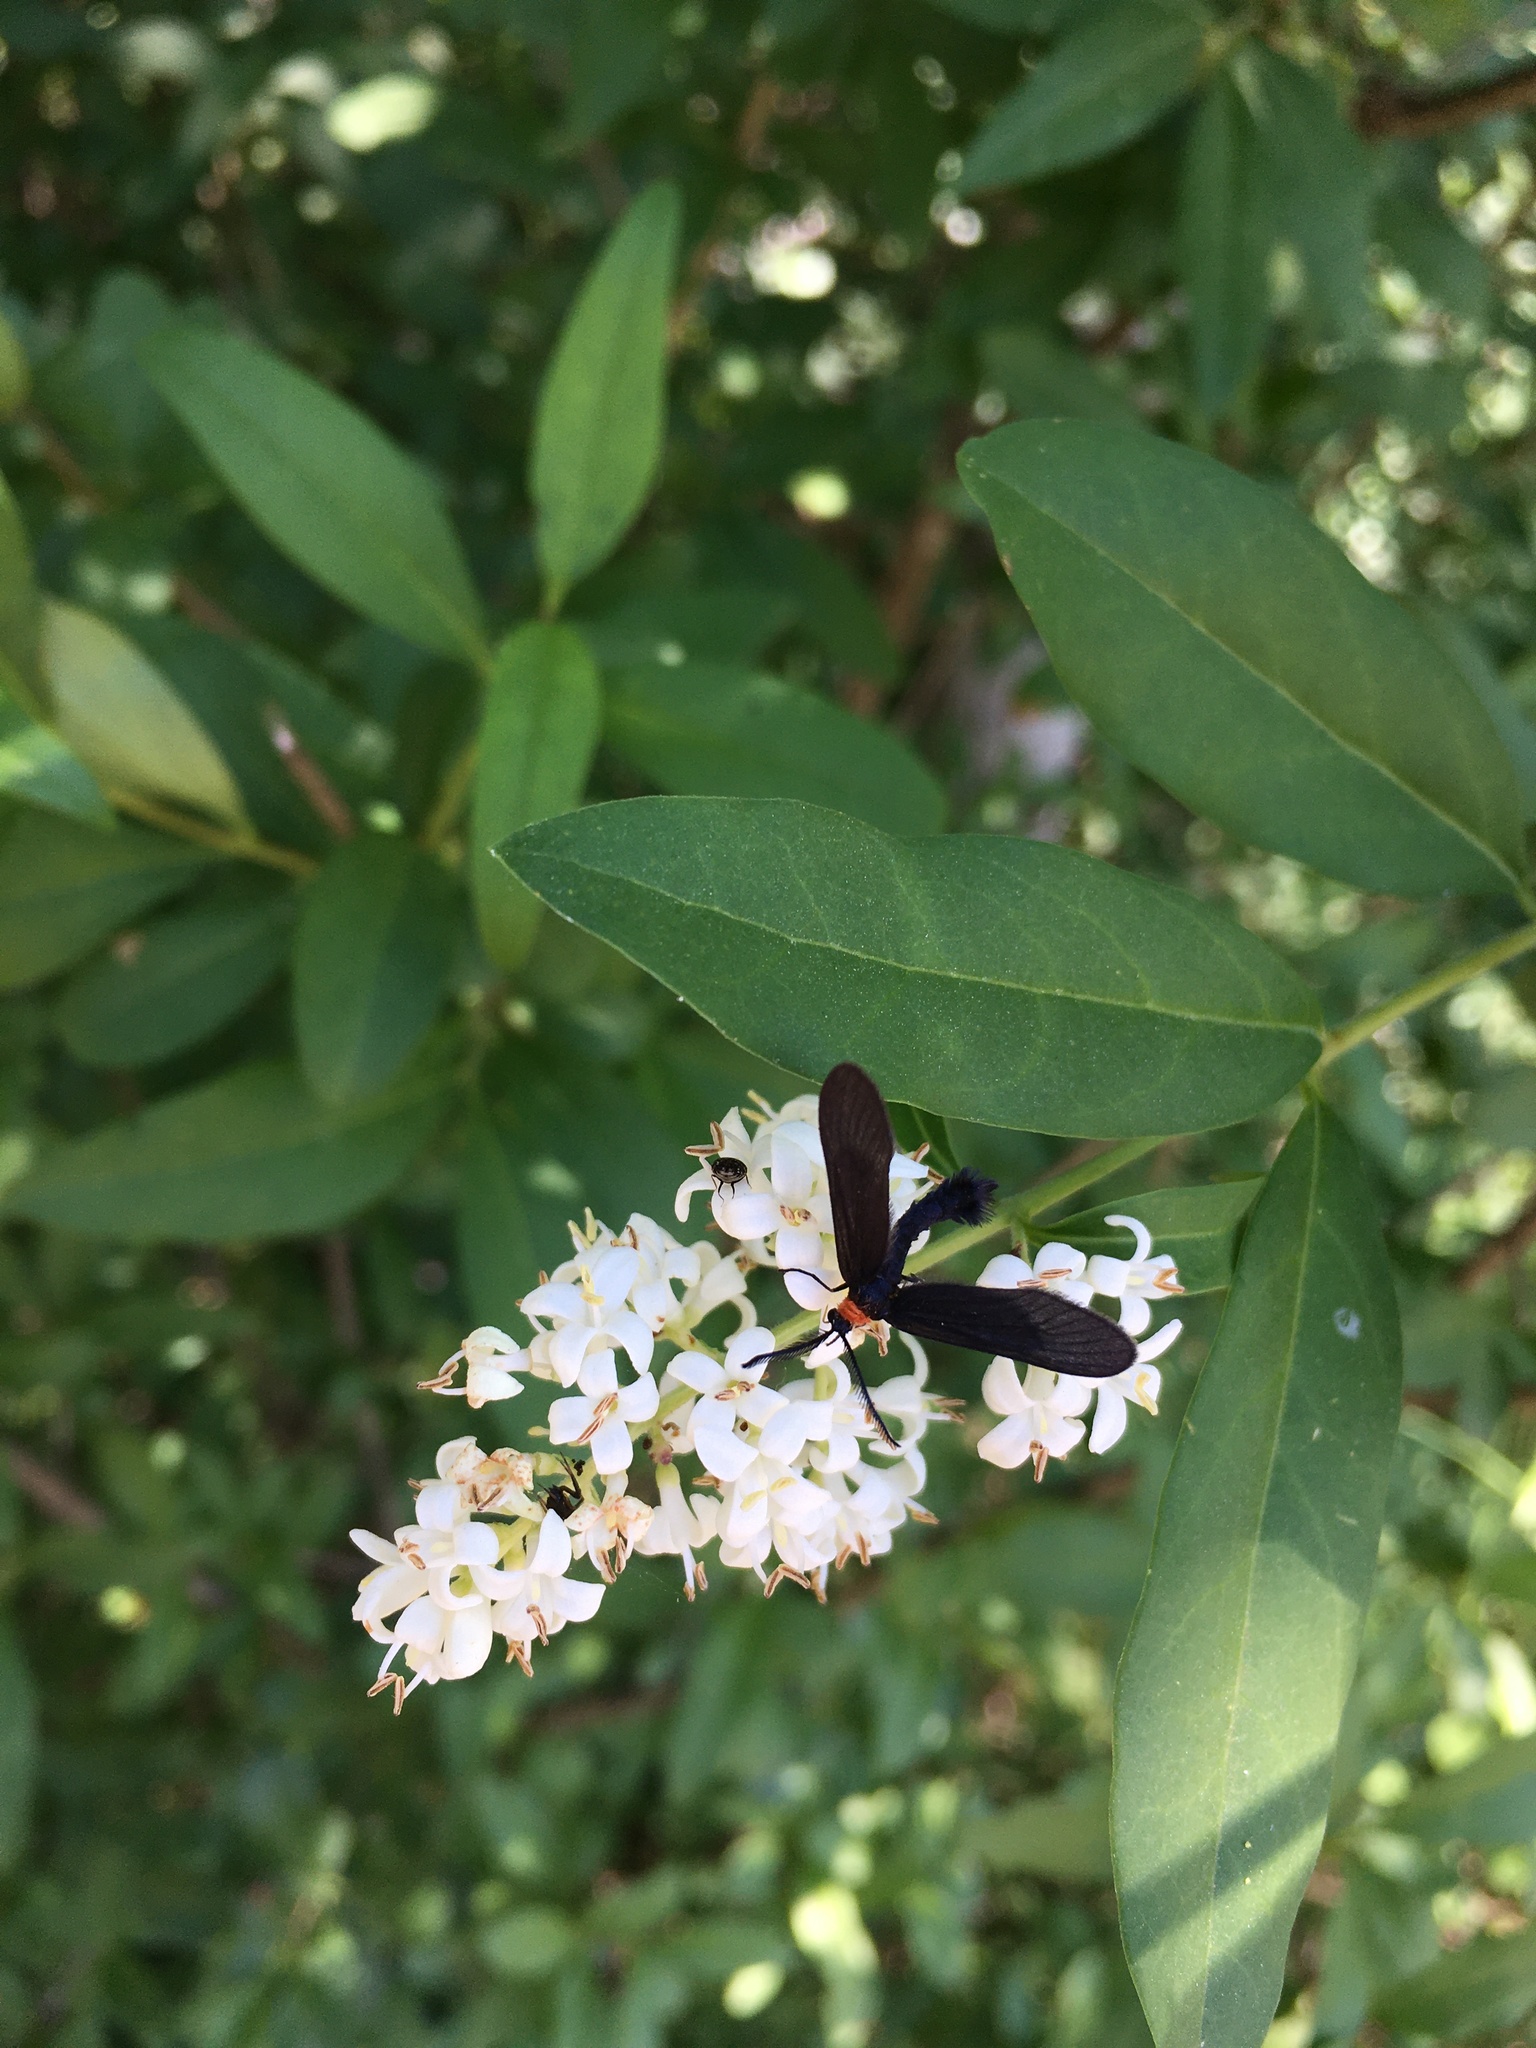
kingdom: Animalia
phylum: Arthropoda
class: Insecta
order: Lepidoptera
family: Zygaenidae
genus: Harrisina
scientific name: Harrisina americana
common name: Grapeleaf skeletonizer moth
